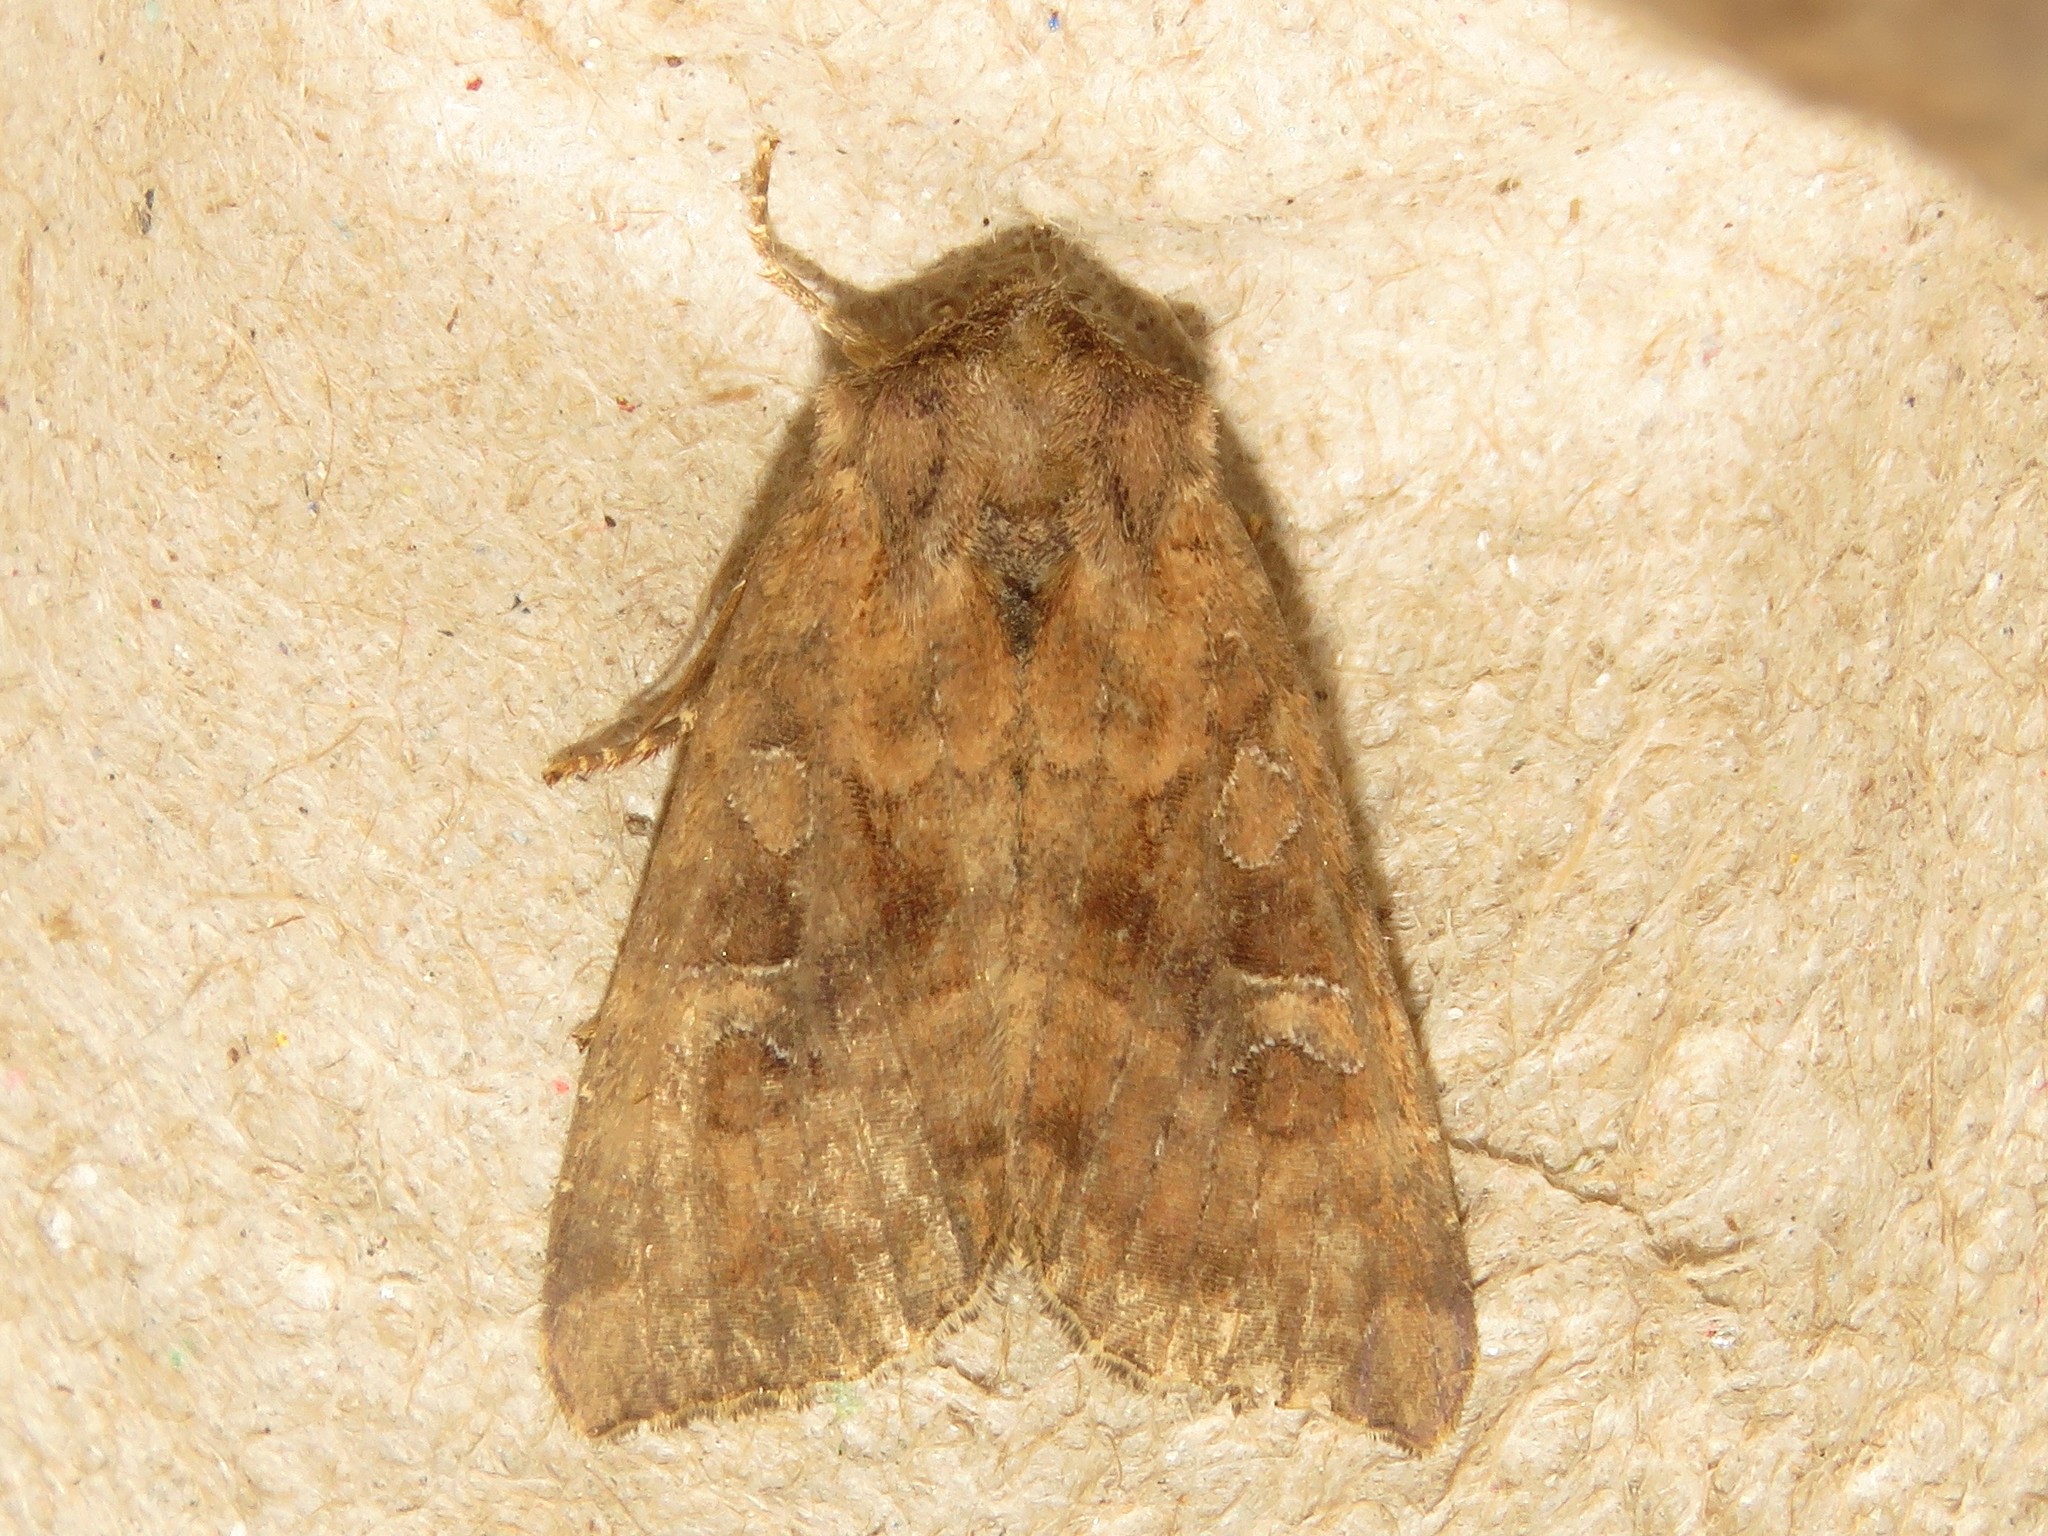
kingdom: Animalia
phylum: Arthropoda
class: Insecta
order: Lepidoptera
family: Noctuidae
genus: Loscopia
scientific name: Loscopia velata
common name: Veiled ear moth
